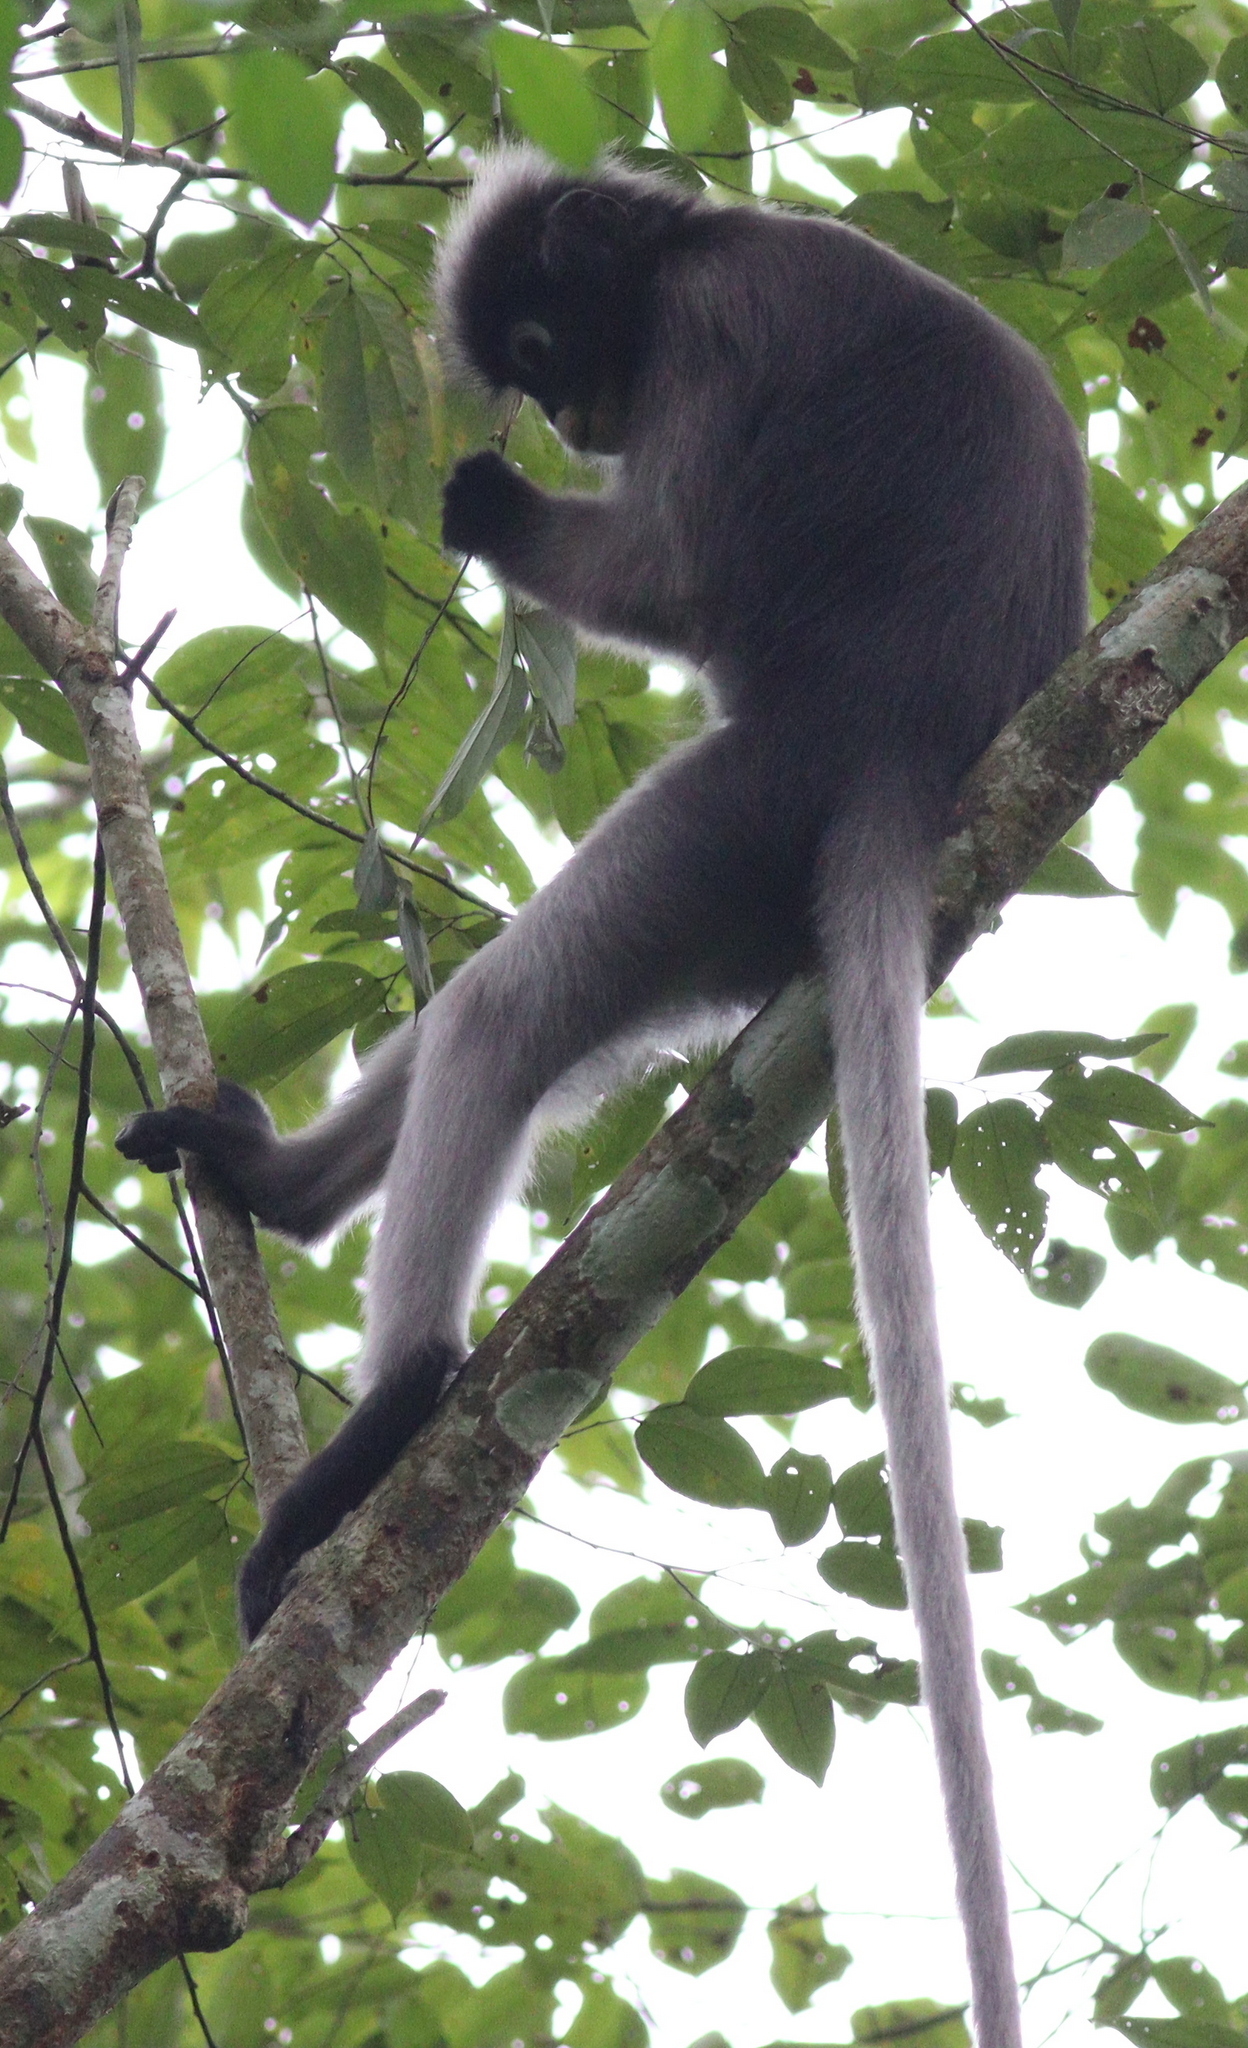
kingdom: Animalia
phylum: Chordata
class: Mammalia
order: Primates
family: Cercopithecidae
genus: Trachypithecus
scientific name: Trachypithecus obscurus
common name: Dusky leaf-monkey
